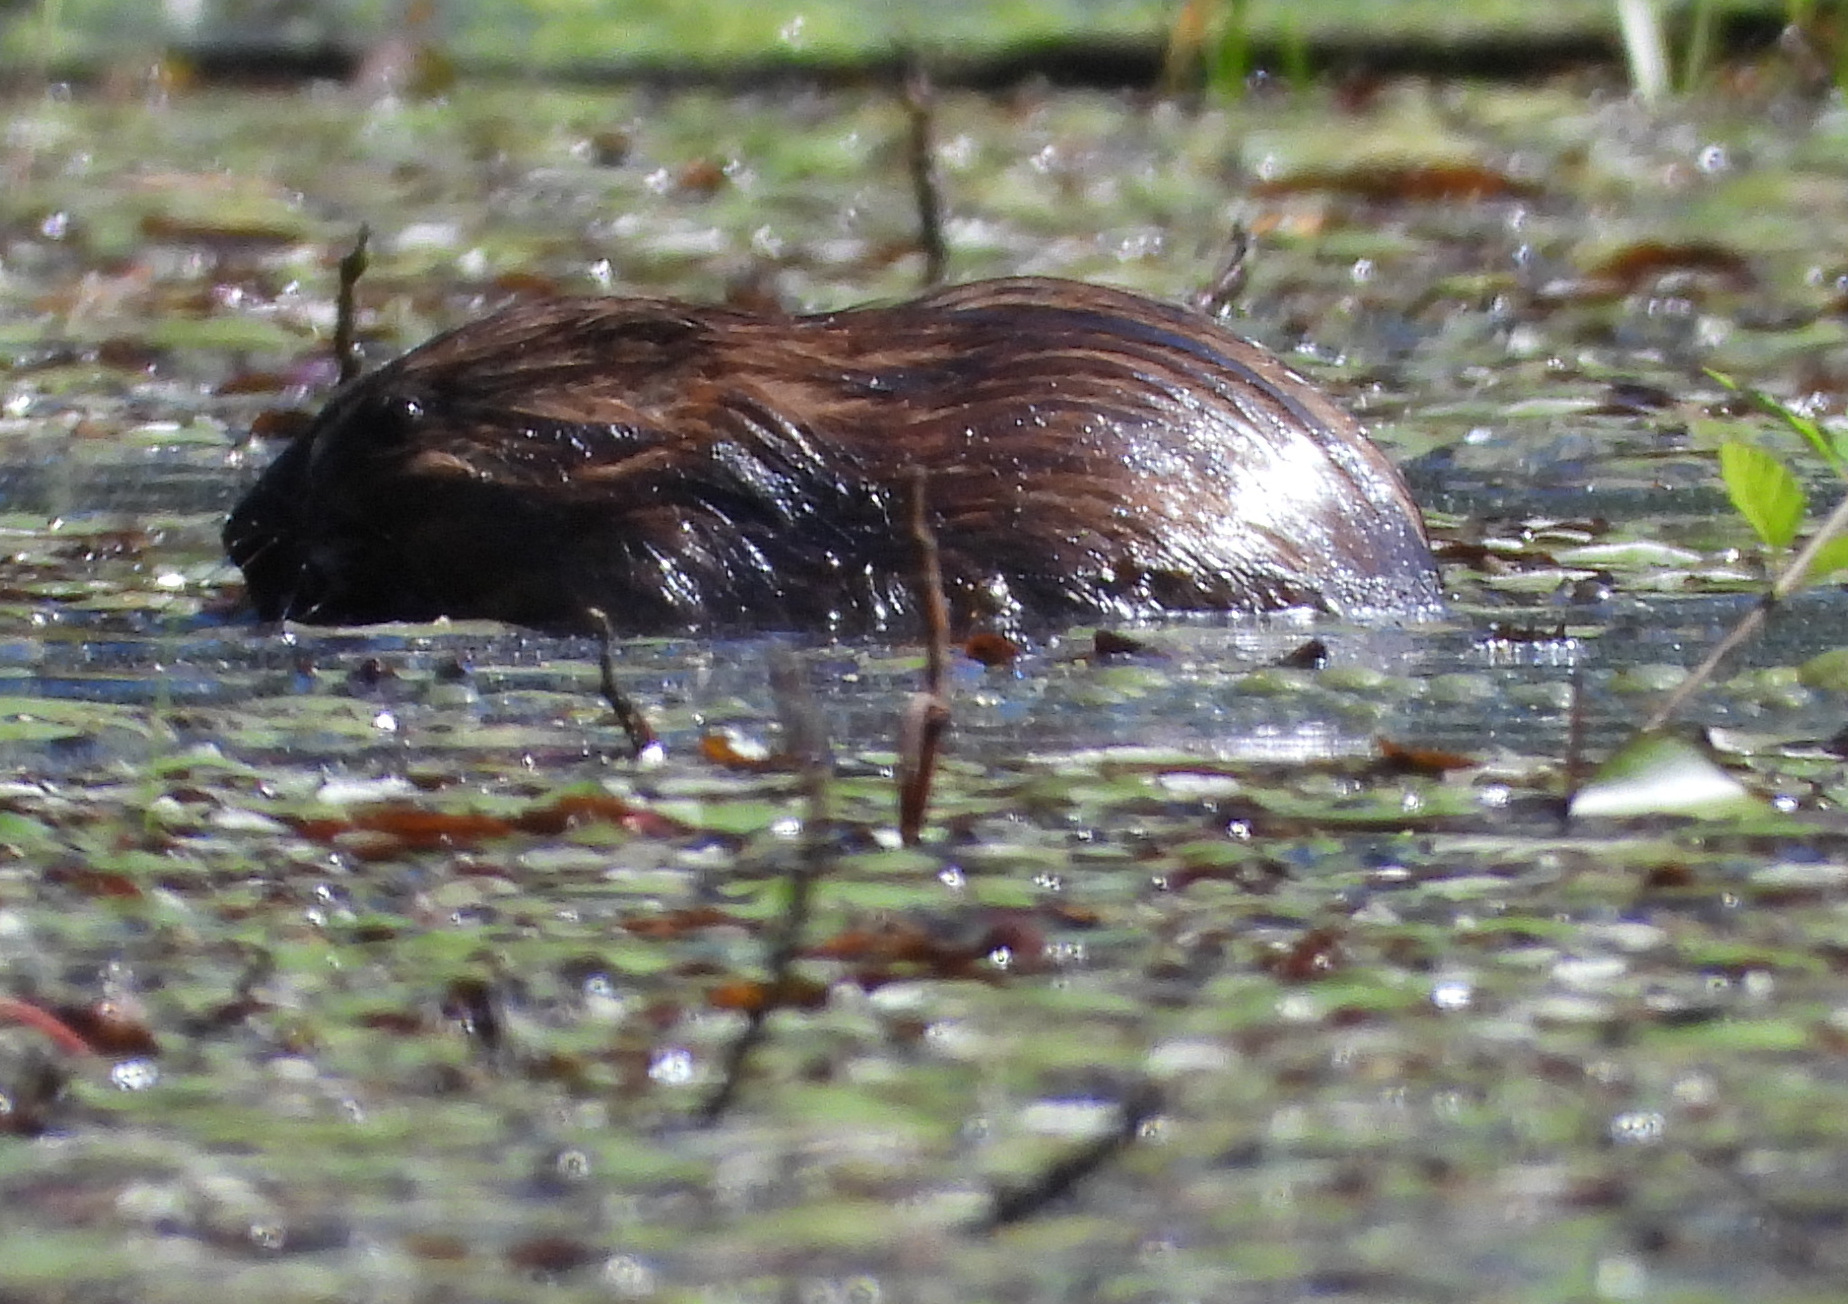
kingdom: Animalia
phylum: Chordata
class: Mammalia
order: Rodentia
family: Cricetidae
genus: Ondatra
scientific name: Ondatra zibethicus
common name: Muskrat
